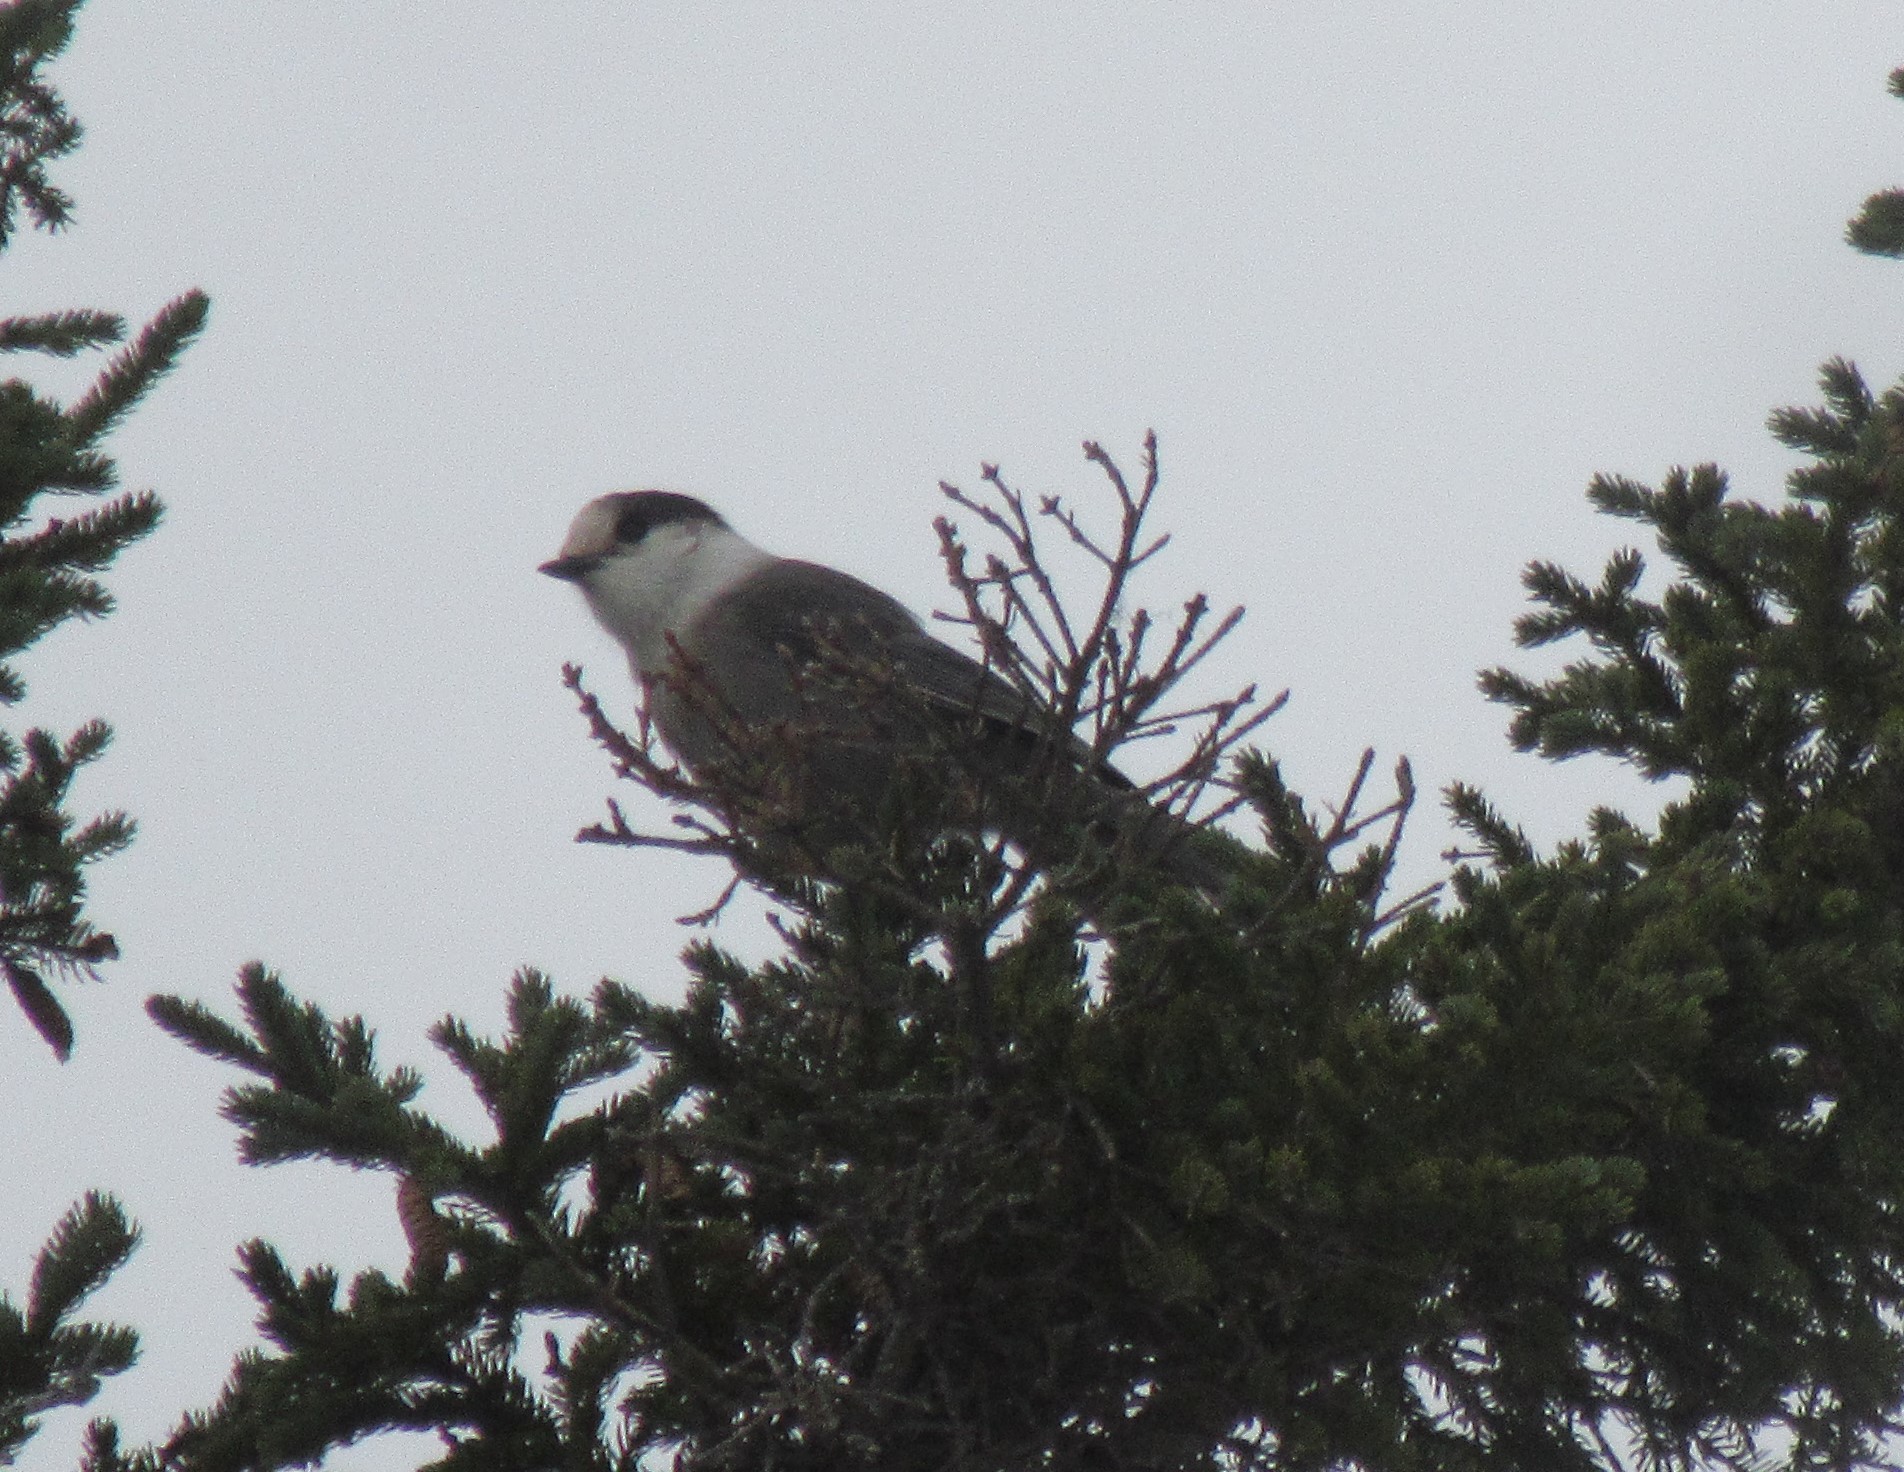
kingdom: Animalia
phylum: Chordata
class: Aves
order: Passeriformes
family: Corvidae
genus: Perisoreus
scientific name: Perisoreus canadensis
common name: Gray jay
